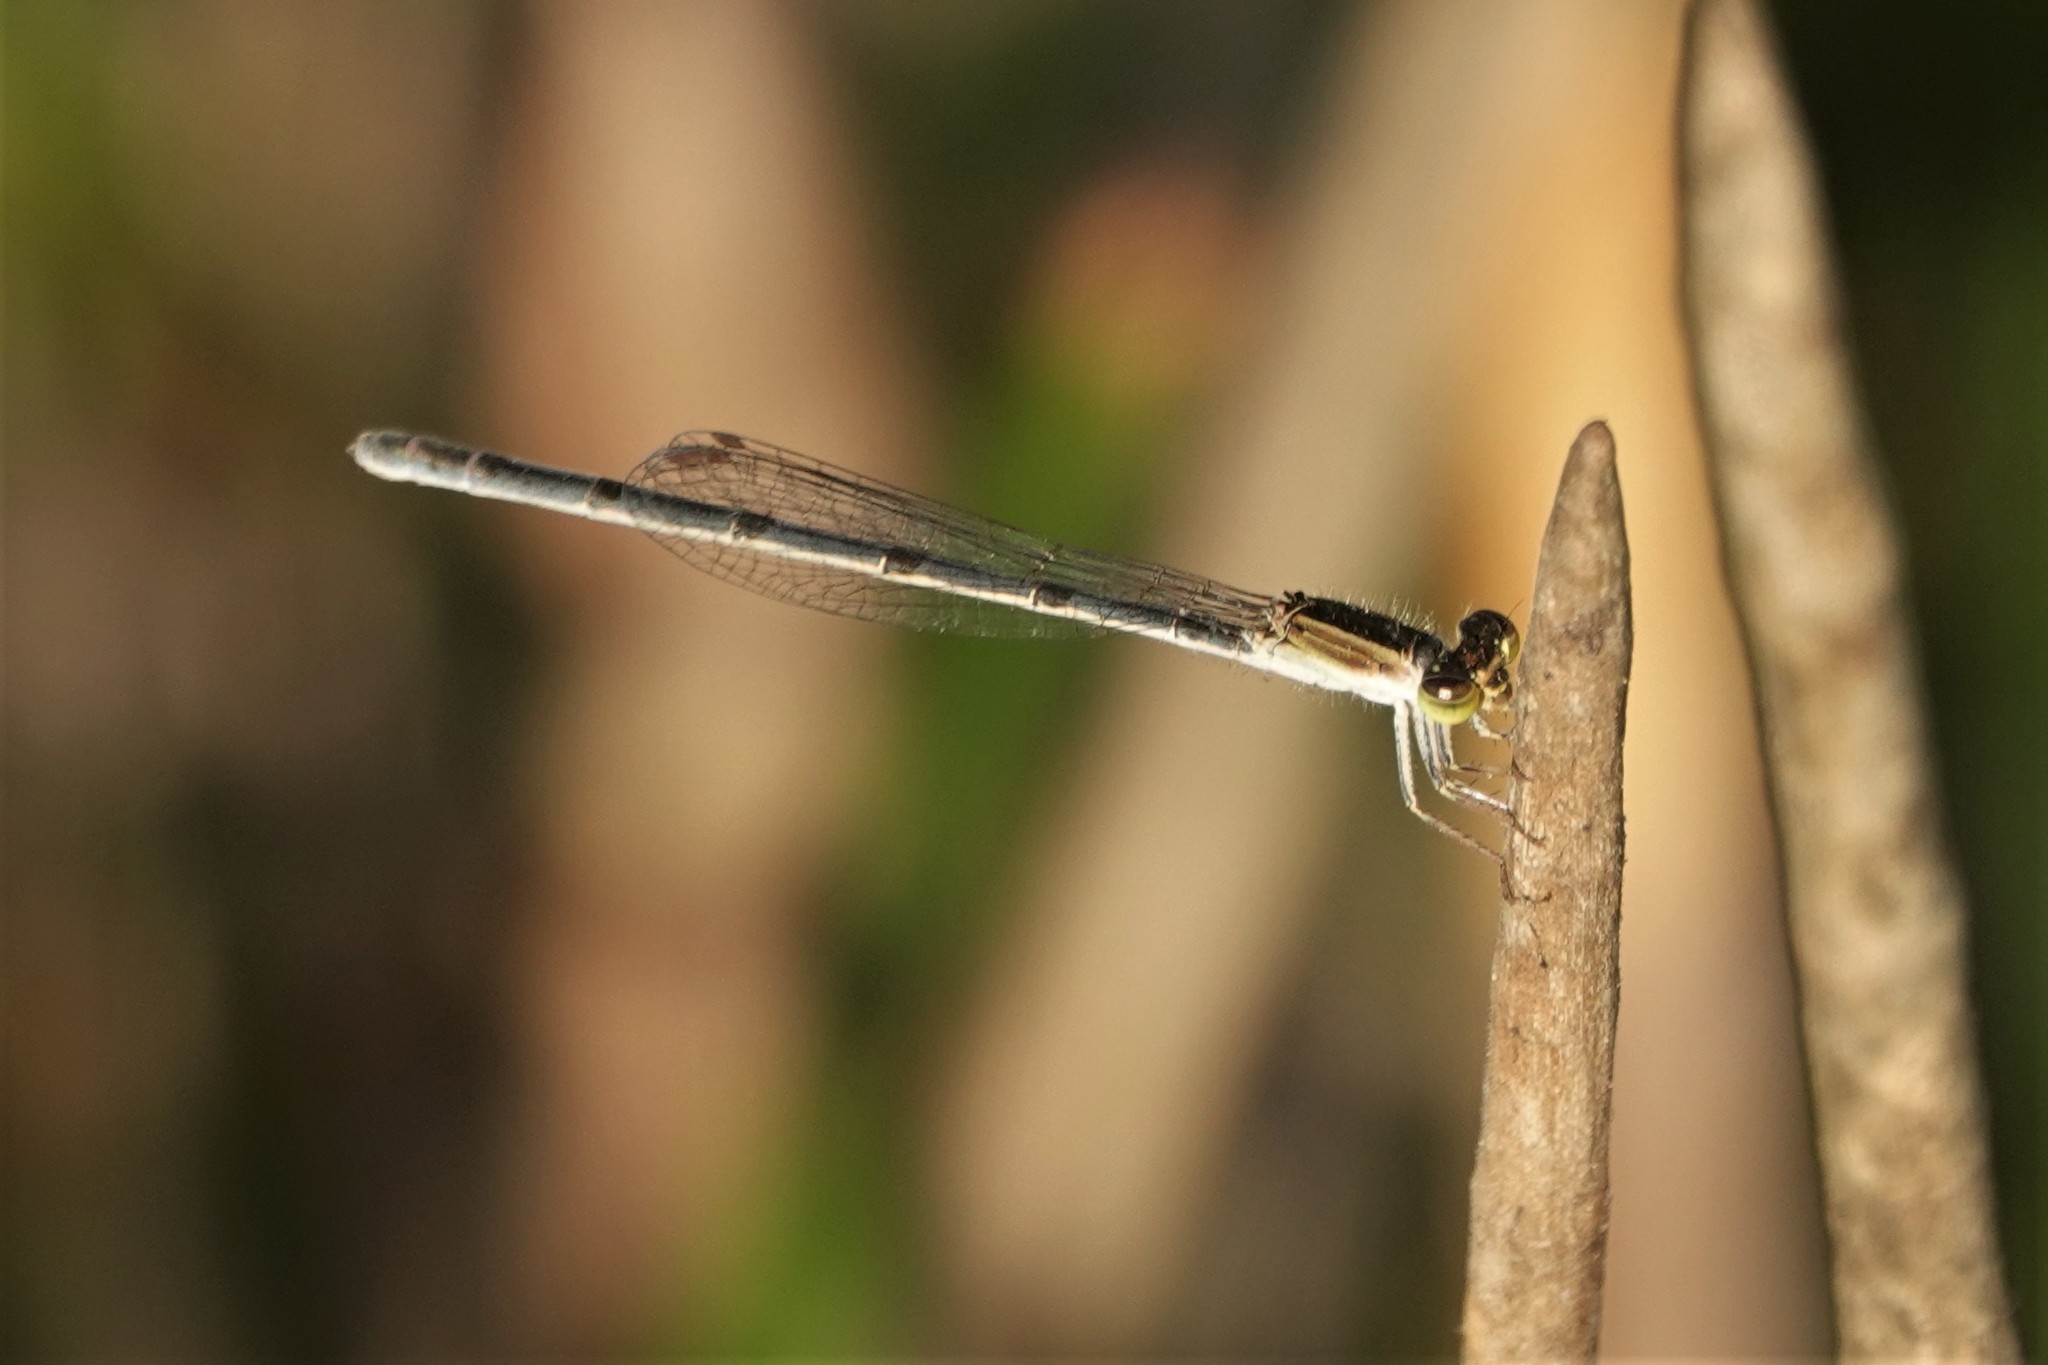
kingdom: Animalia
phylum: Arthropoda
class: Insecta
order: Odonata
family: Coenagrionidae
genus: Ischnura
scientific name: Ischnura hastata
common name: Citrine forktail
